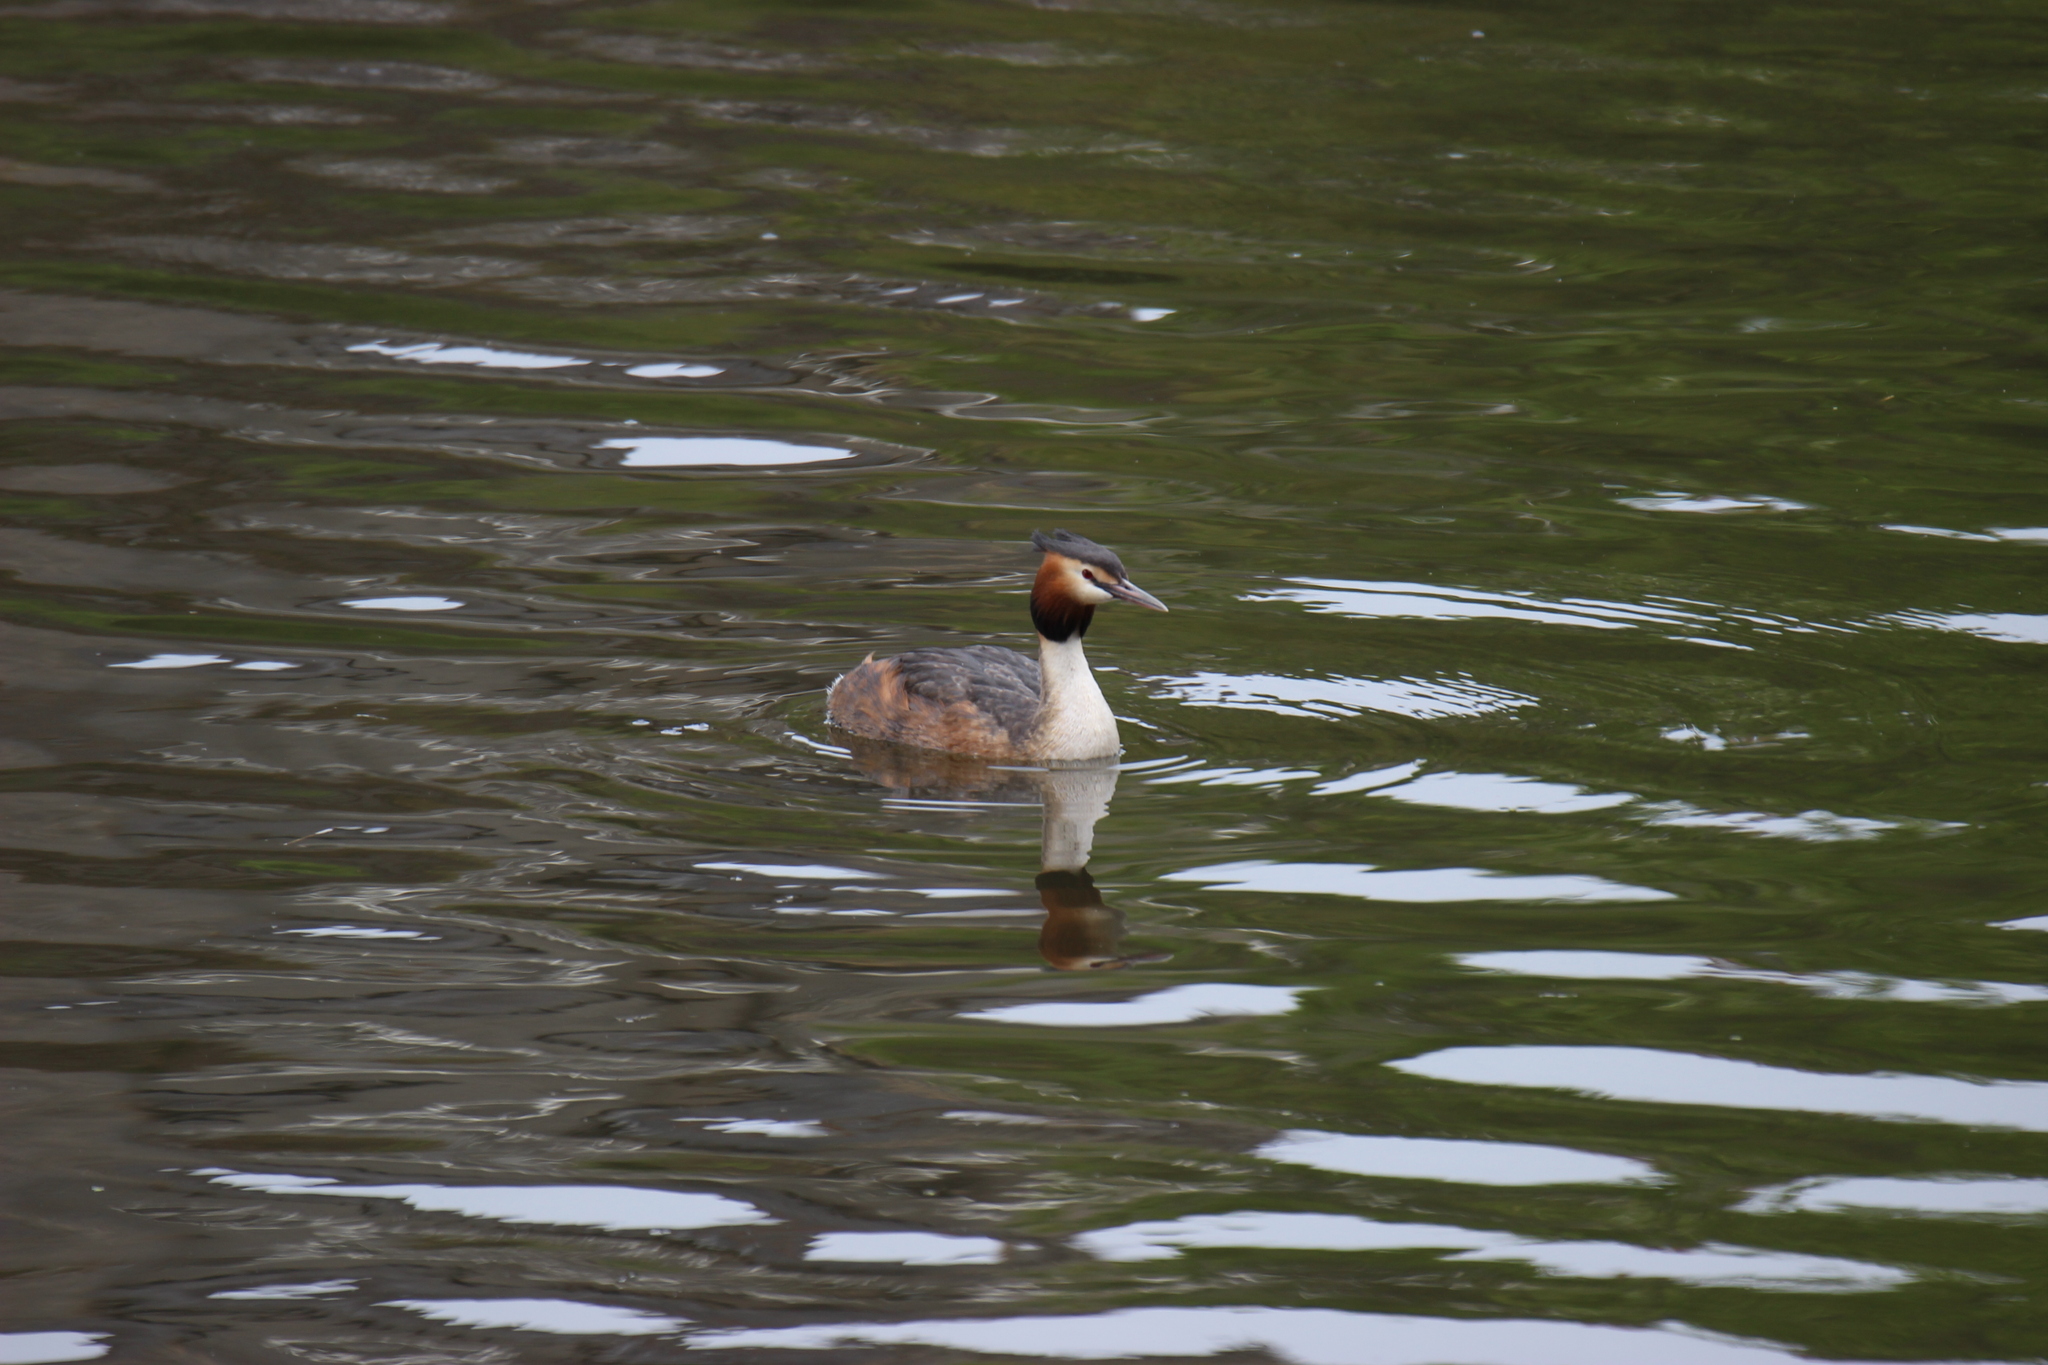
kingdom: Animalia
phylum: Chordata
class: Aves
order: Podicipediformes
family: Podicipedidae
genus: Podiceps
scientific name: Podiceps cristatus
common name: Great crested grebe
